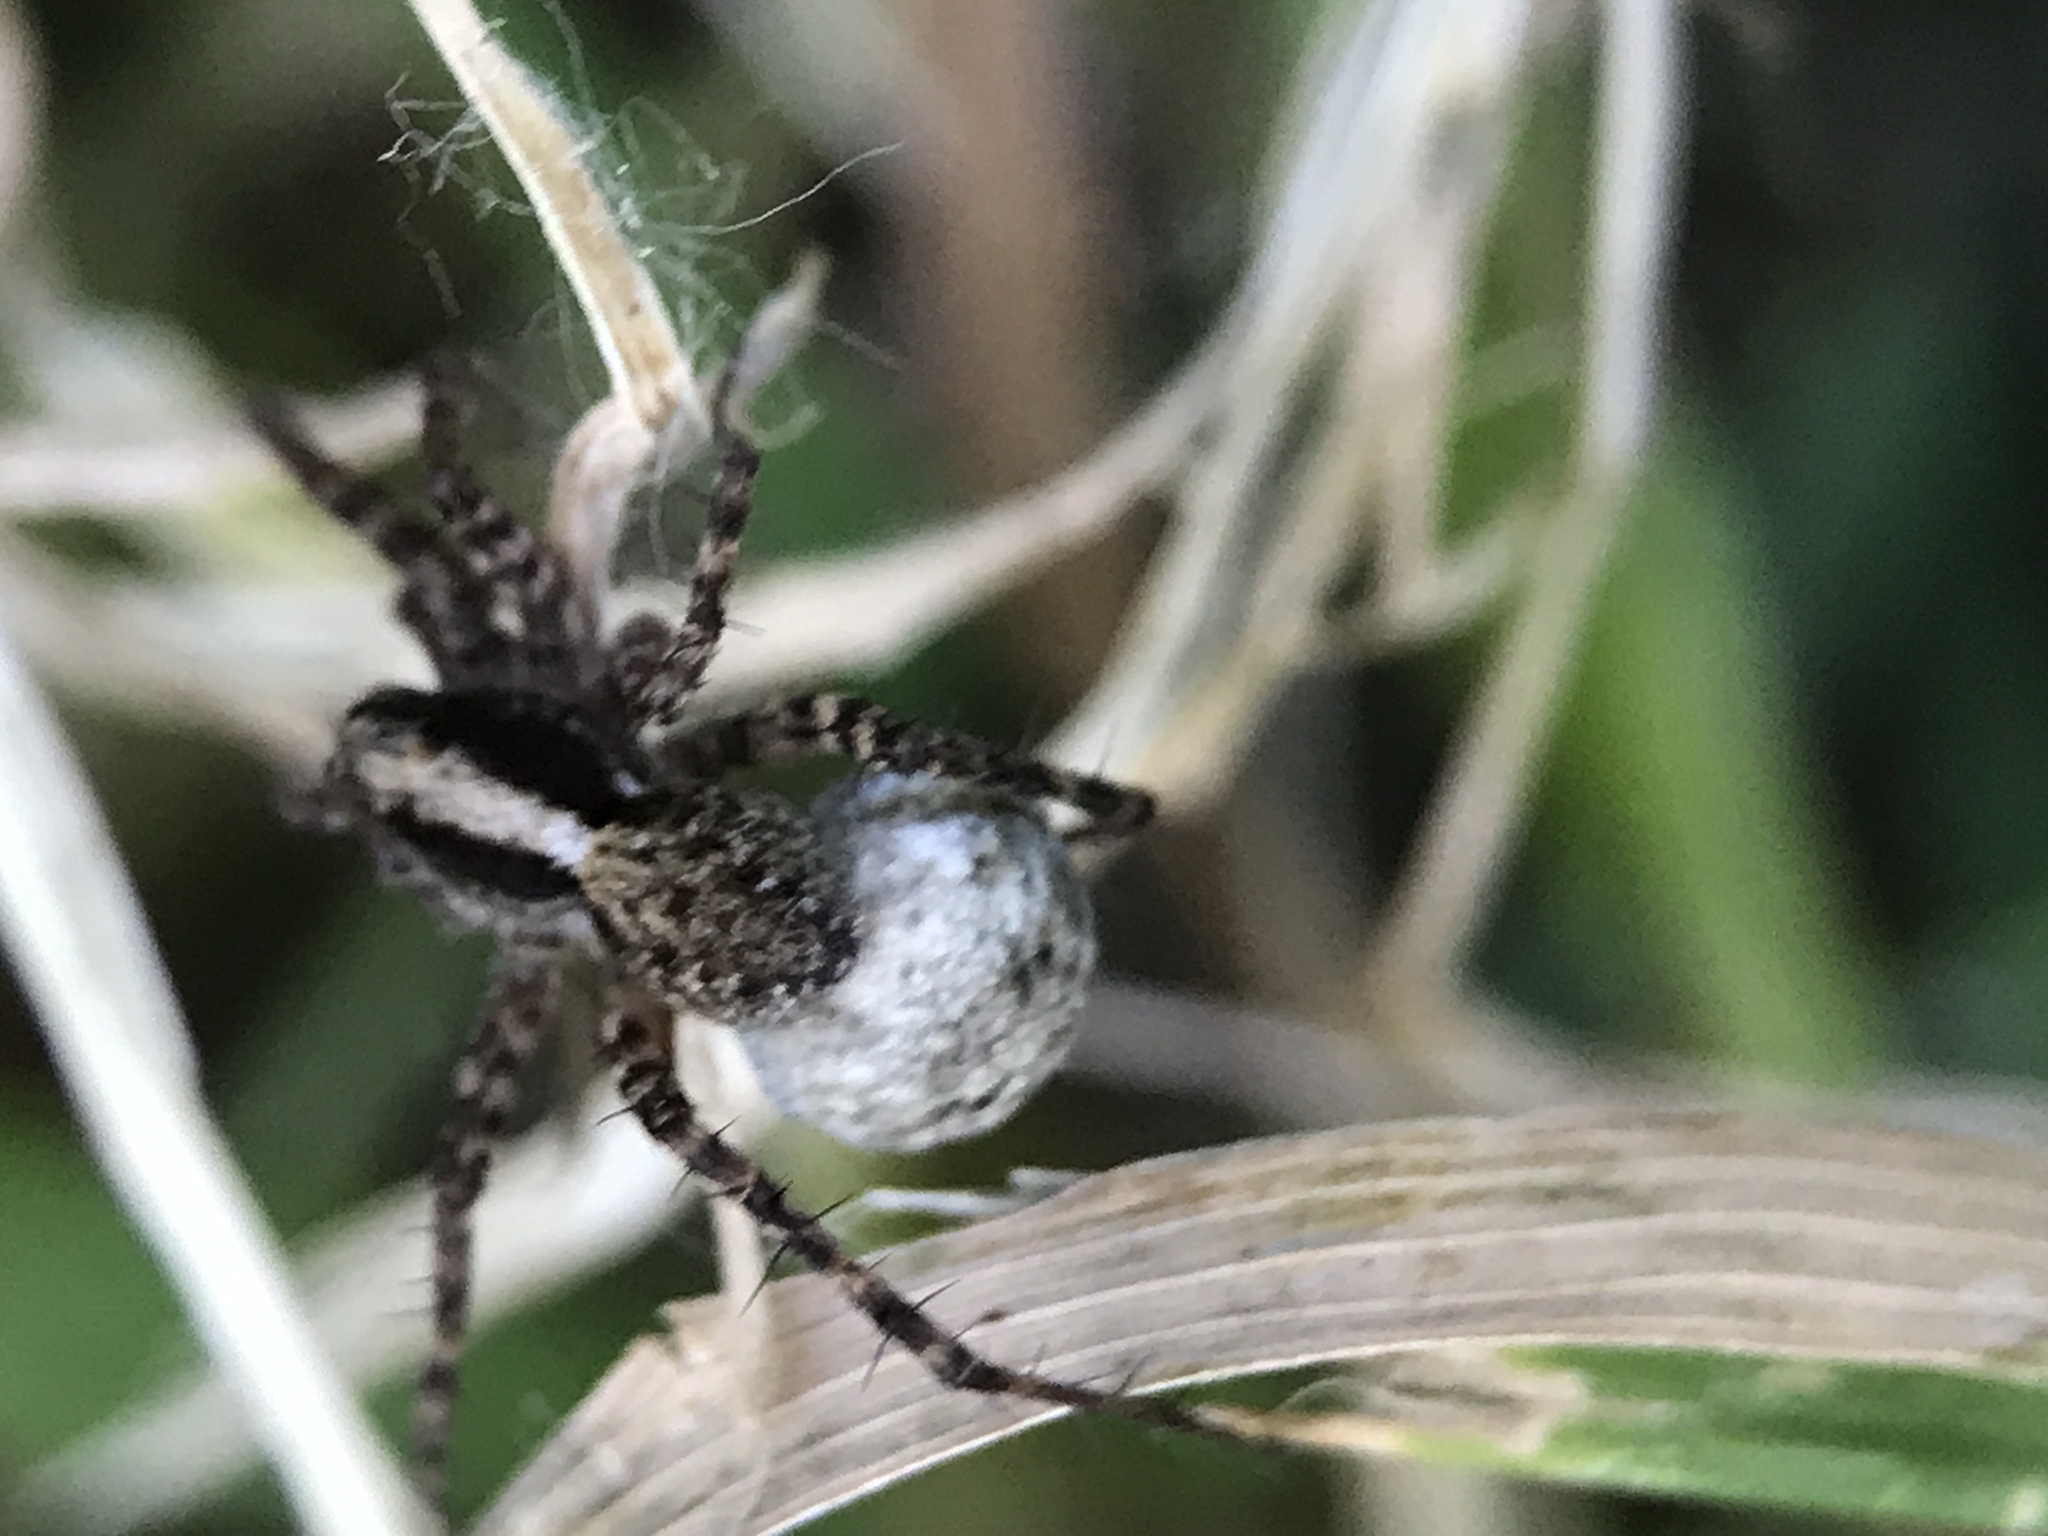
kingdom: Animalia
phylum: Arthropoda
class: Arachnida
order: Araneae
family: Lycosidae
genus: Pardosa
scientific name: Pardosa
